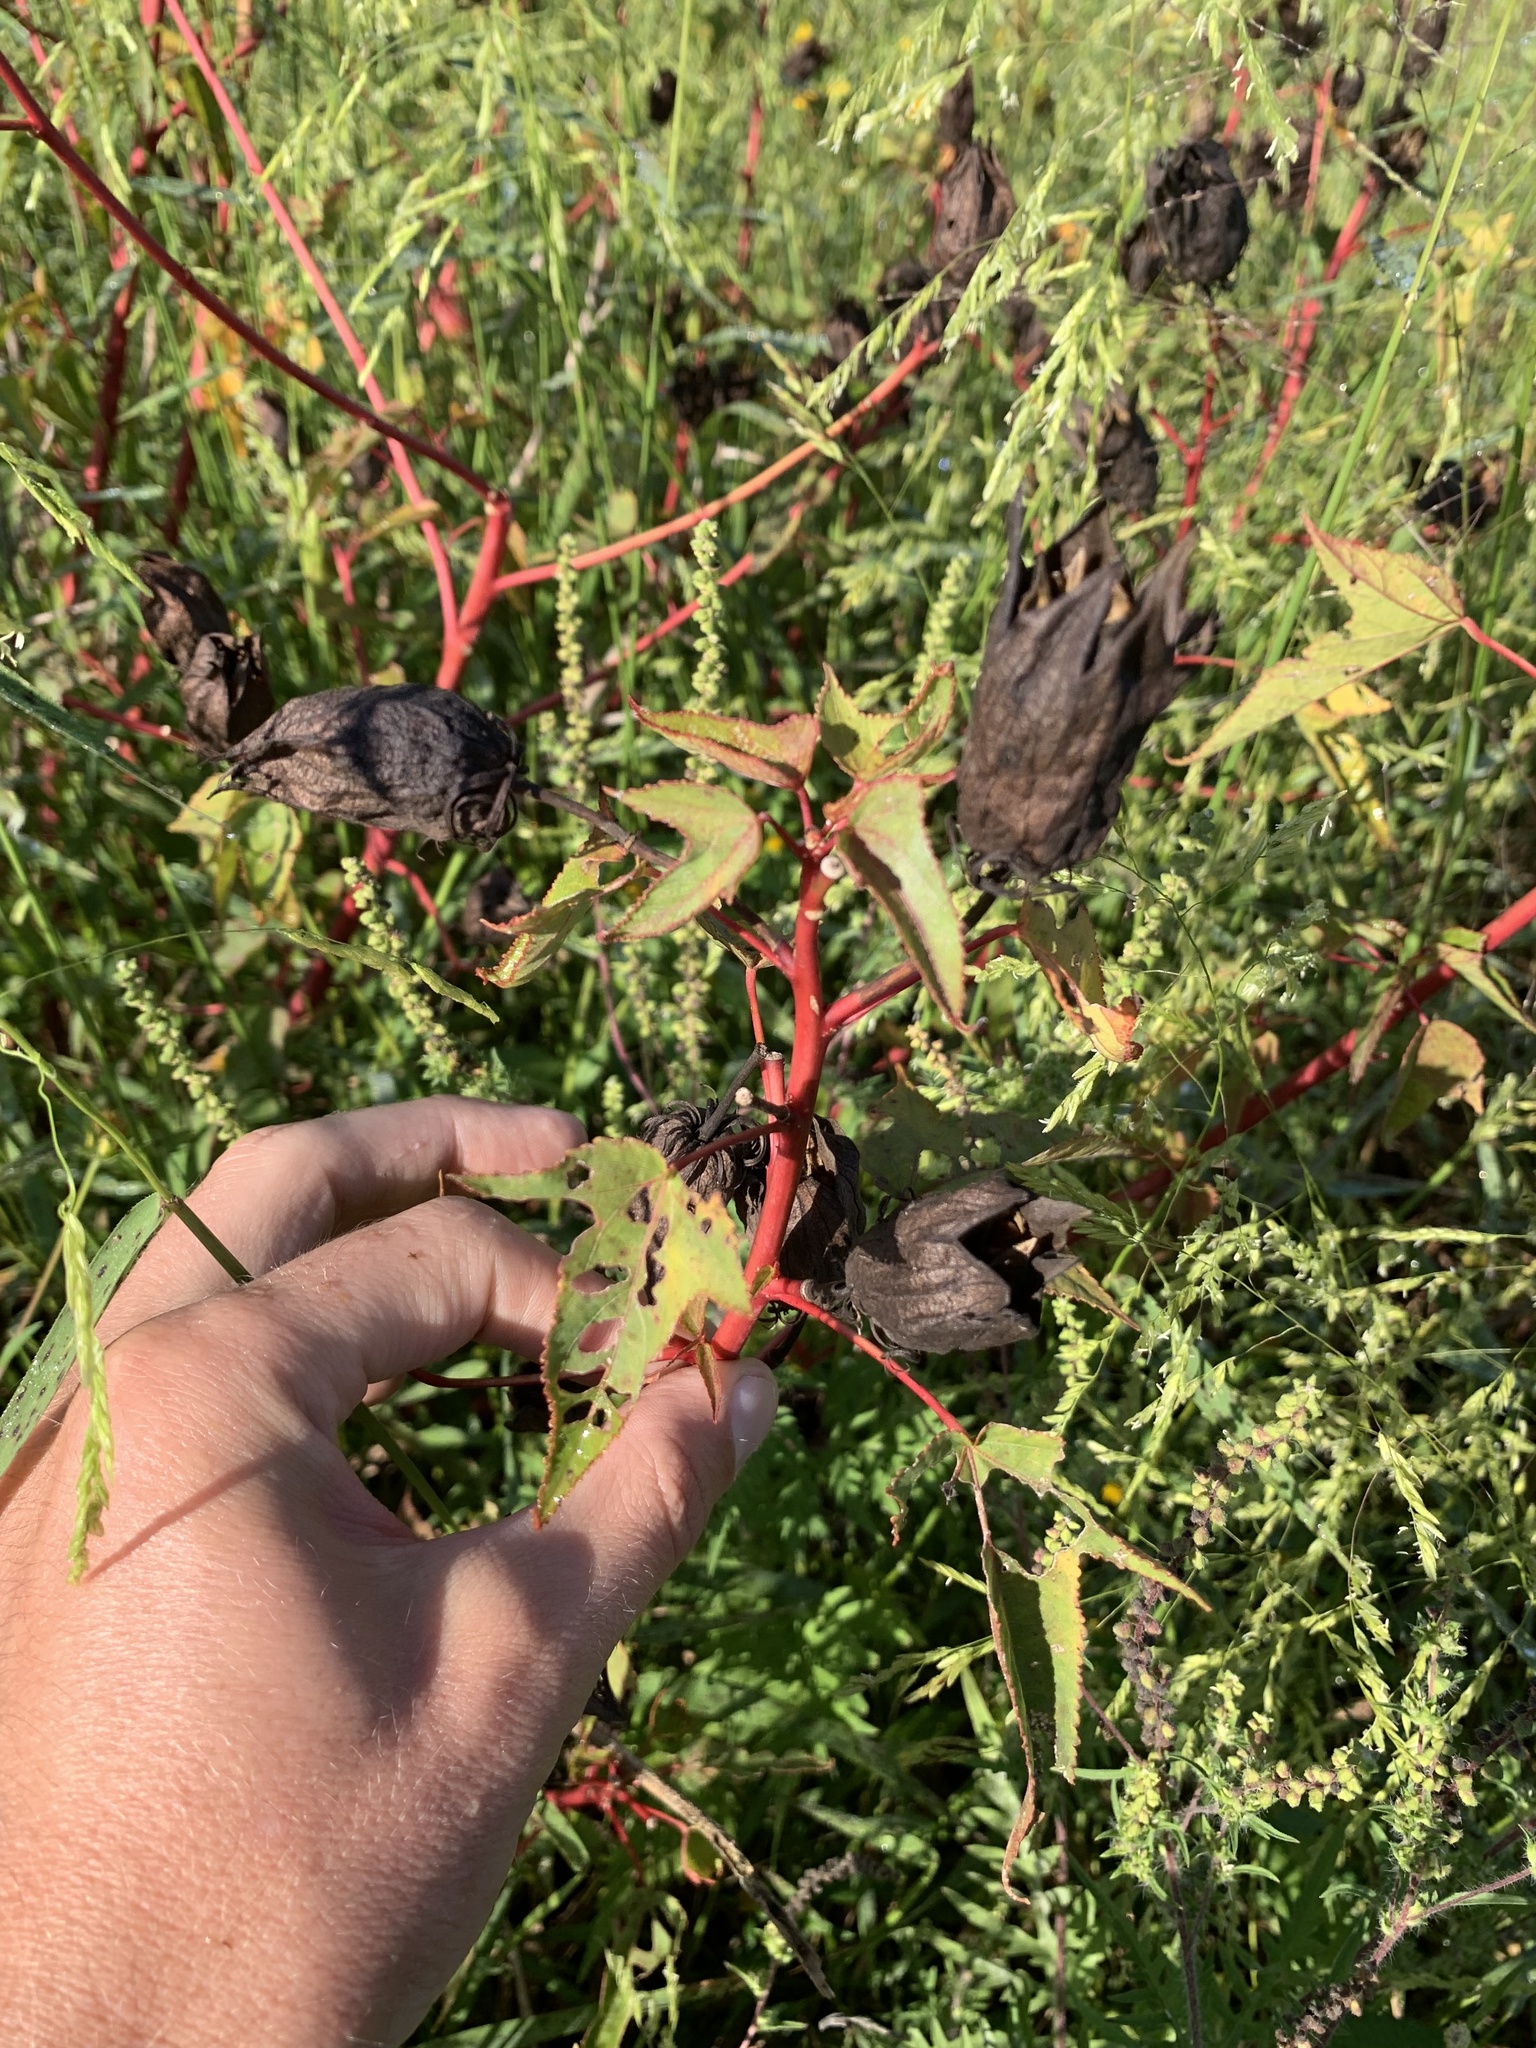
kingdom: Plantae
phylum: Tracheophyta
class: Magnoliopsida
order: Malvales
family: Malvaceae
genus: Hibiscus
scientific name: Hibiscus laevis
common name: Scarlet rose-mallow
